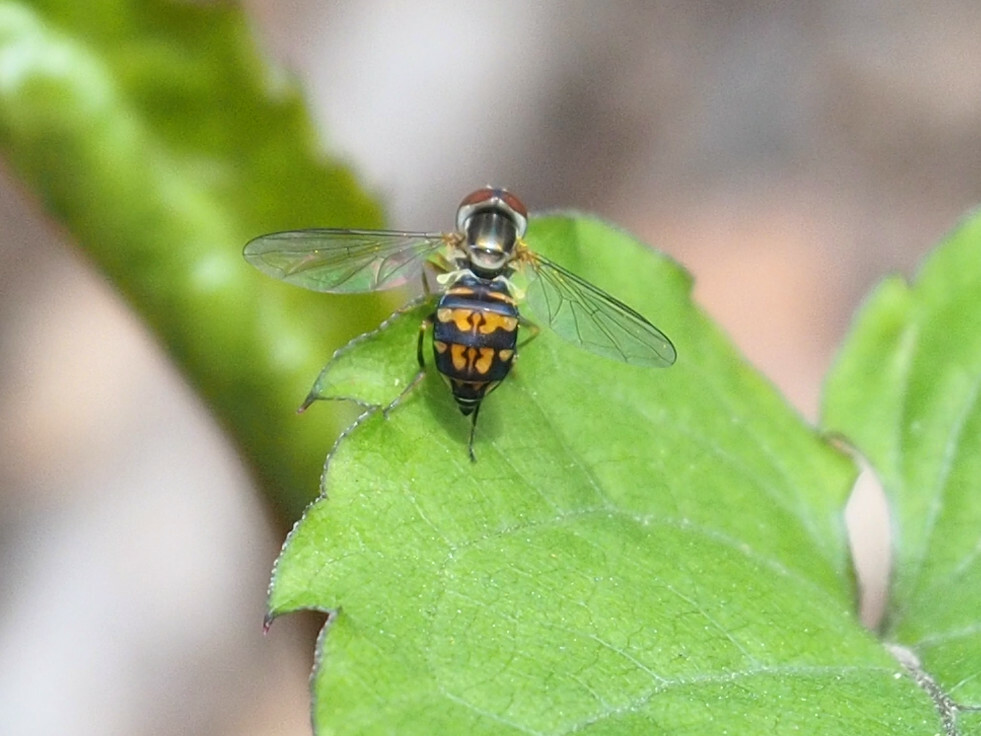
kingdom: Animalia
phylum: Arthropoda
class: Insecta
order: Diptera
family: Syrphidae
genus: Toxomerus
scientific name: Toxomerus geminatus
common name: Eastern calligrapher
